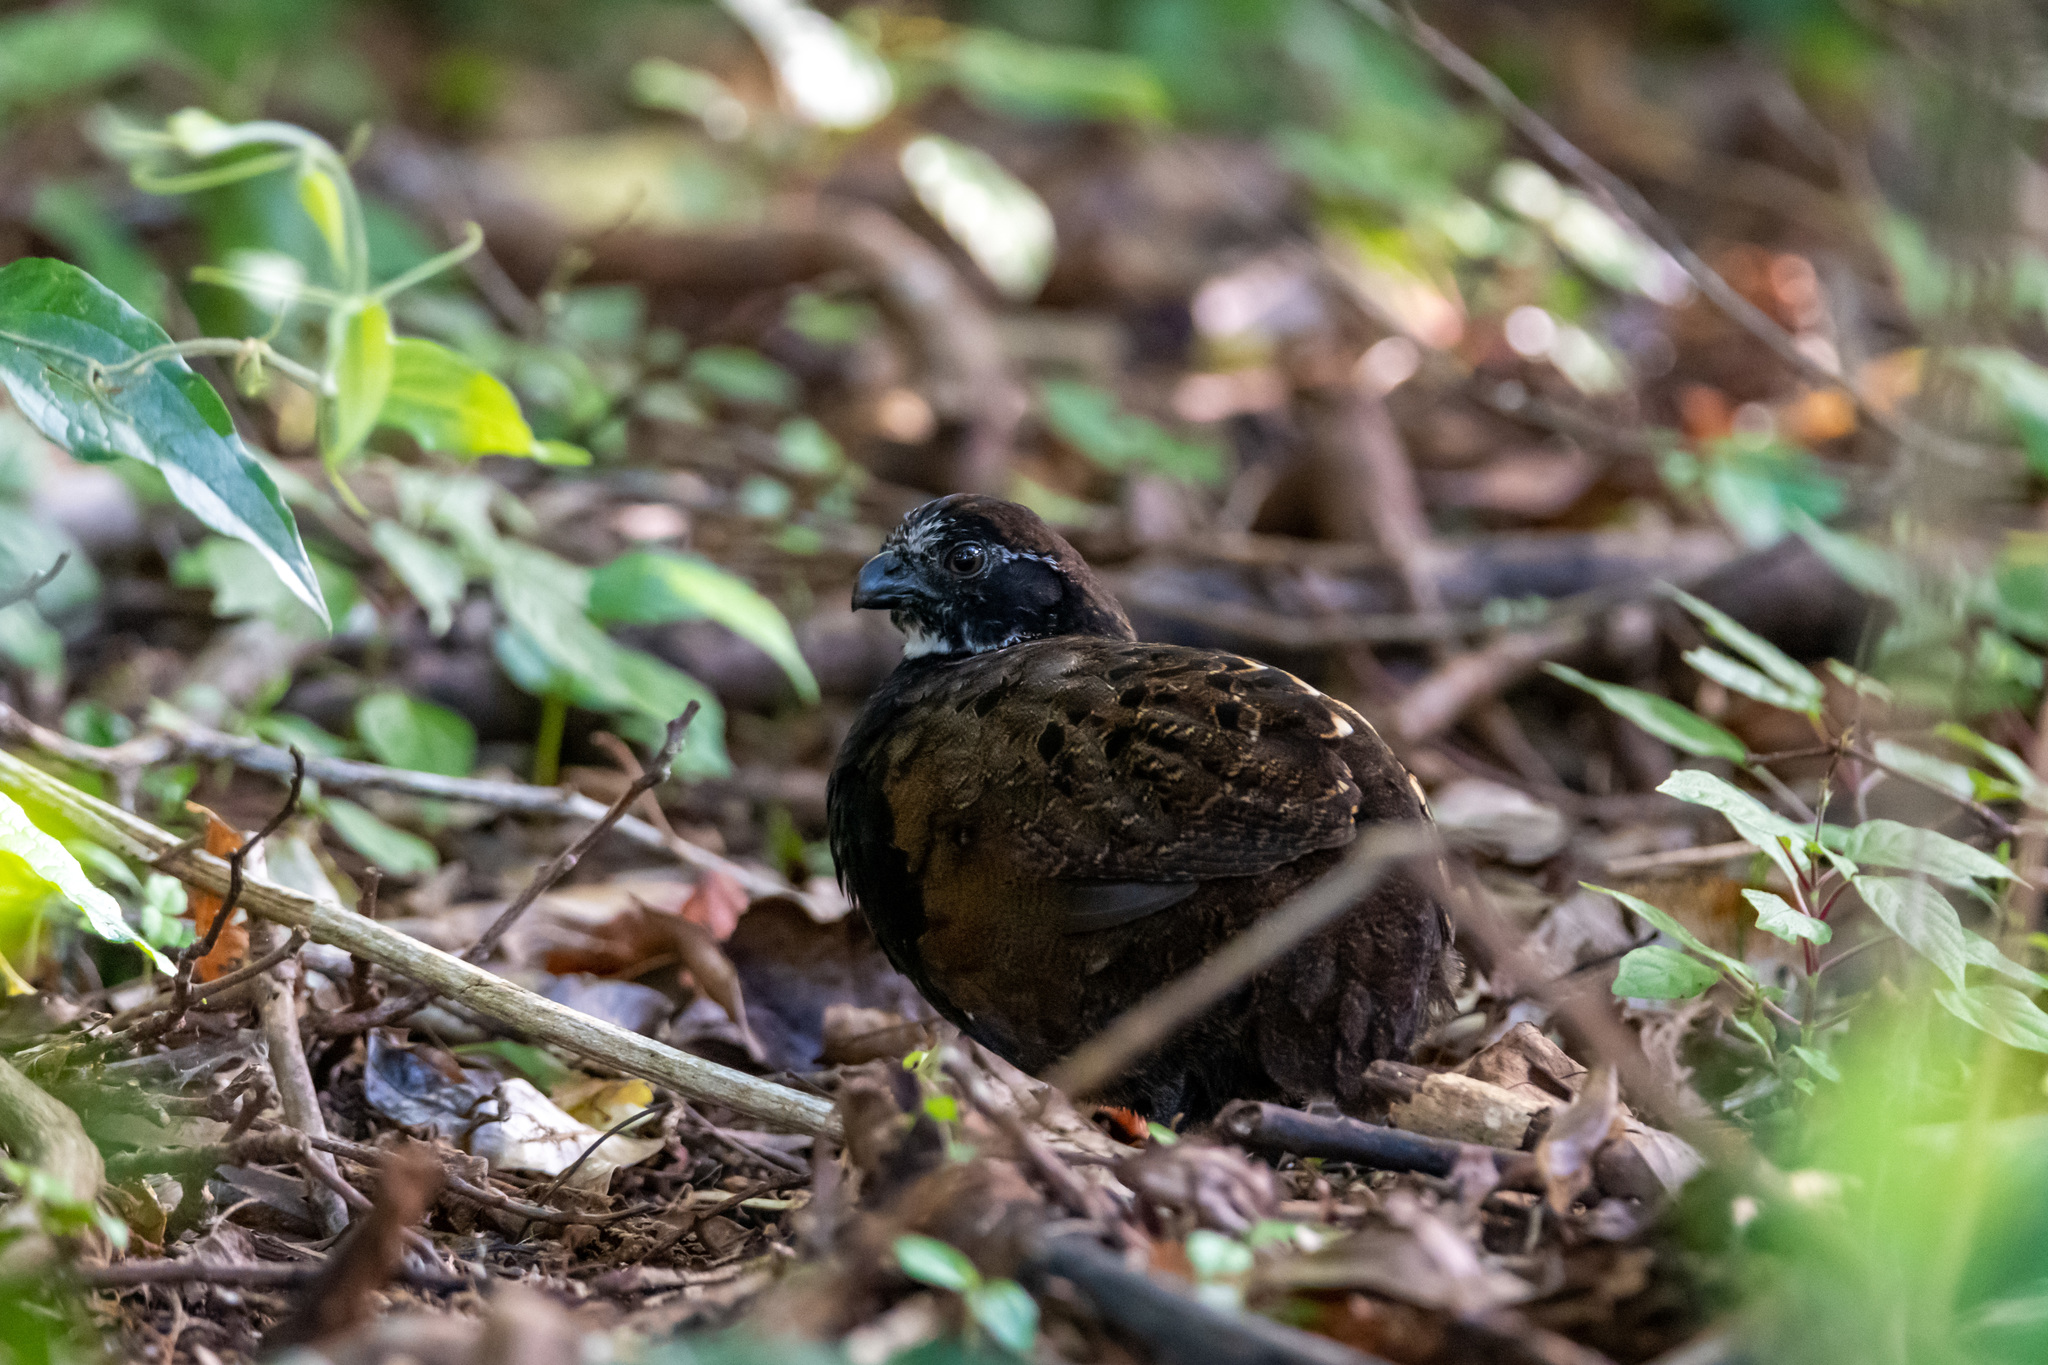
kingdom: Animalia
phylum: Chordata
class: Aves
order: Galliformes
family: Odontophoridae
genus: Odontophorus
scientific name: Odontophorus leucolaemus
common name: Black-breasted wood-quail
